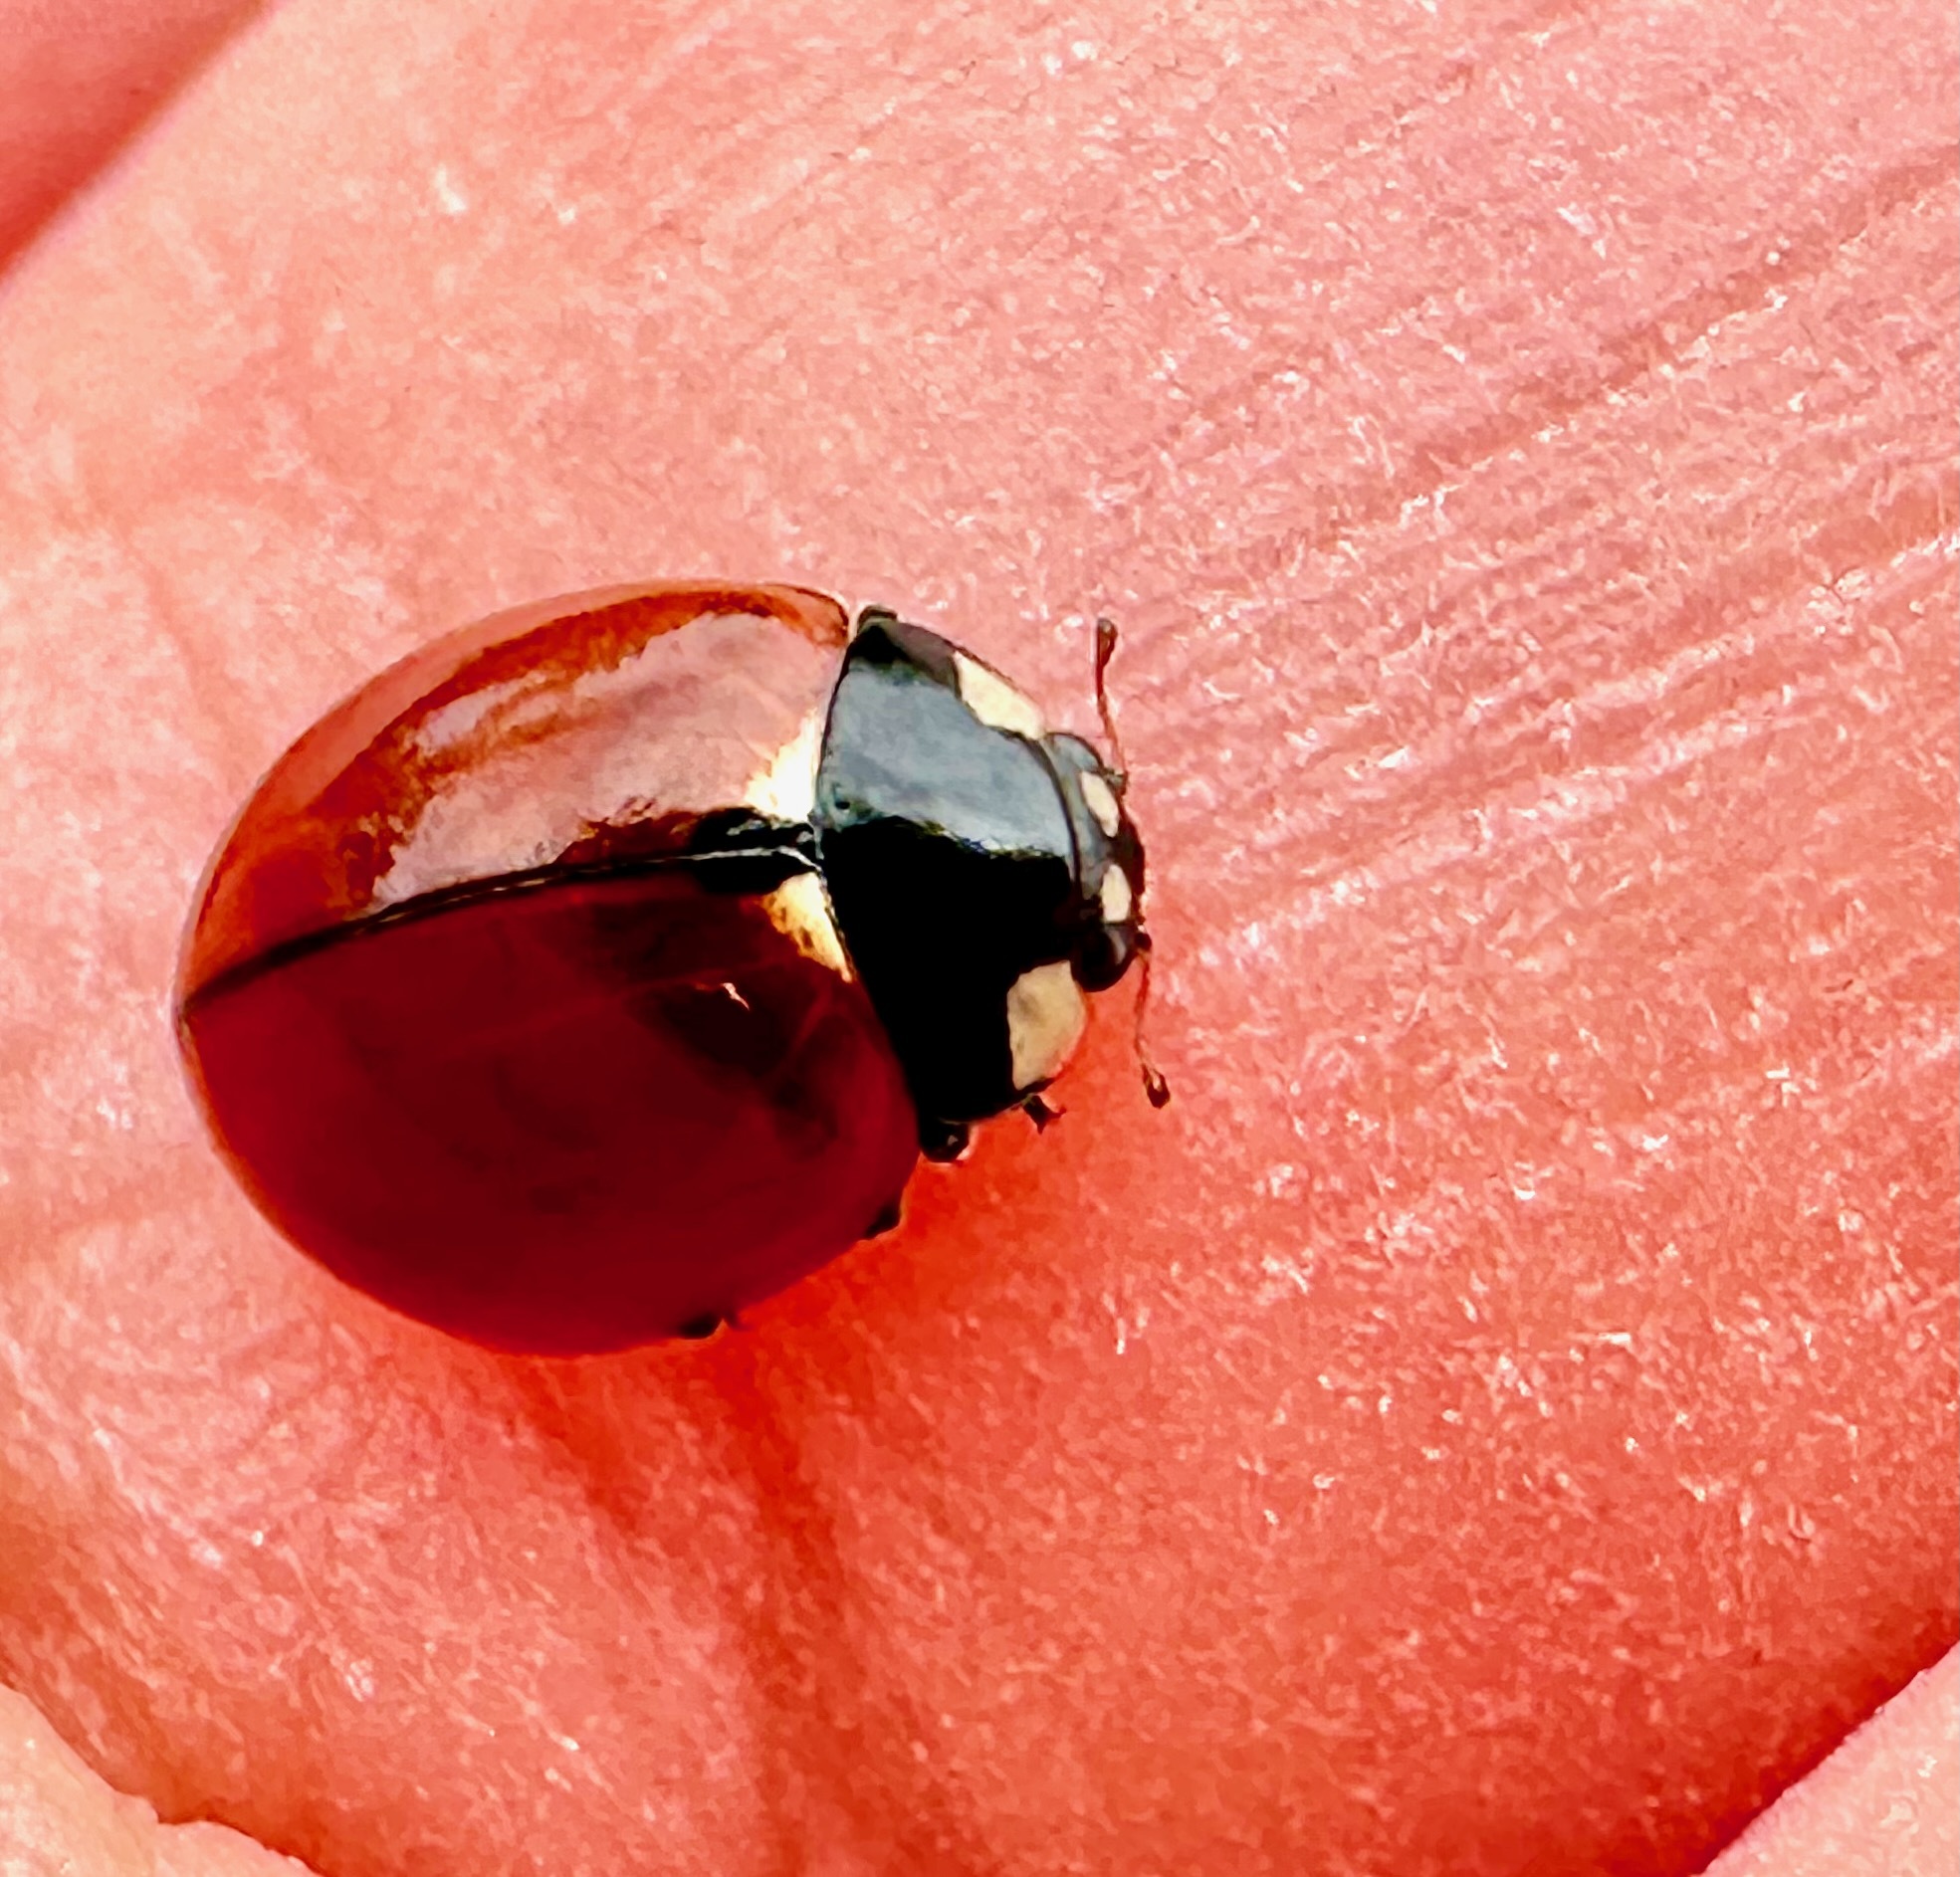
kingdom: Animalia
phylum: Arthropoda
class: Insecta
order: Coleoptera
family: Coccinellidae
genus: Coccinella
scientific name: Coccinella californica
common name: Lady beetle
